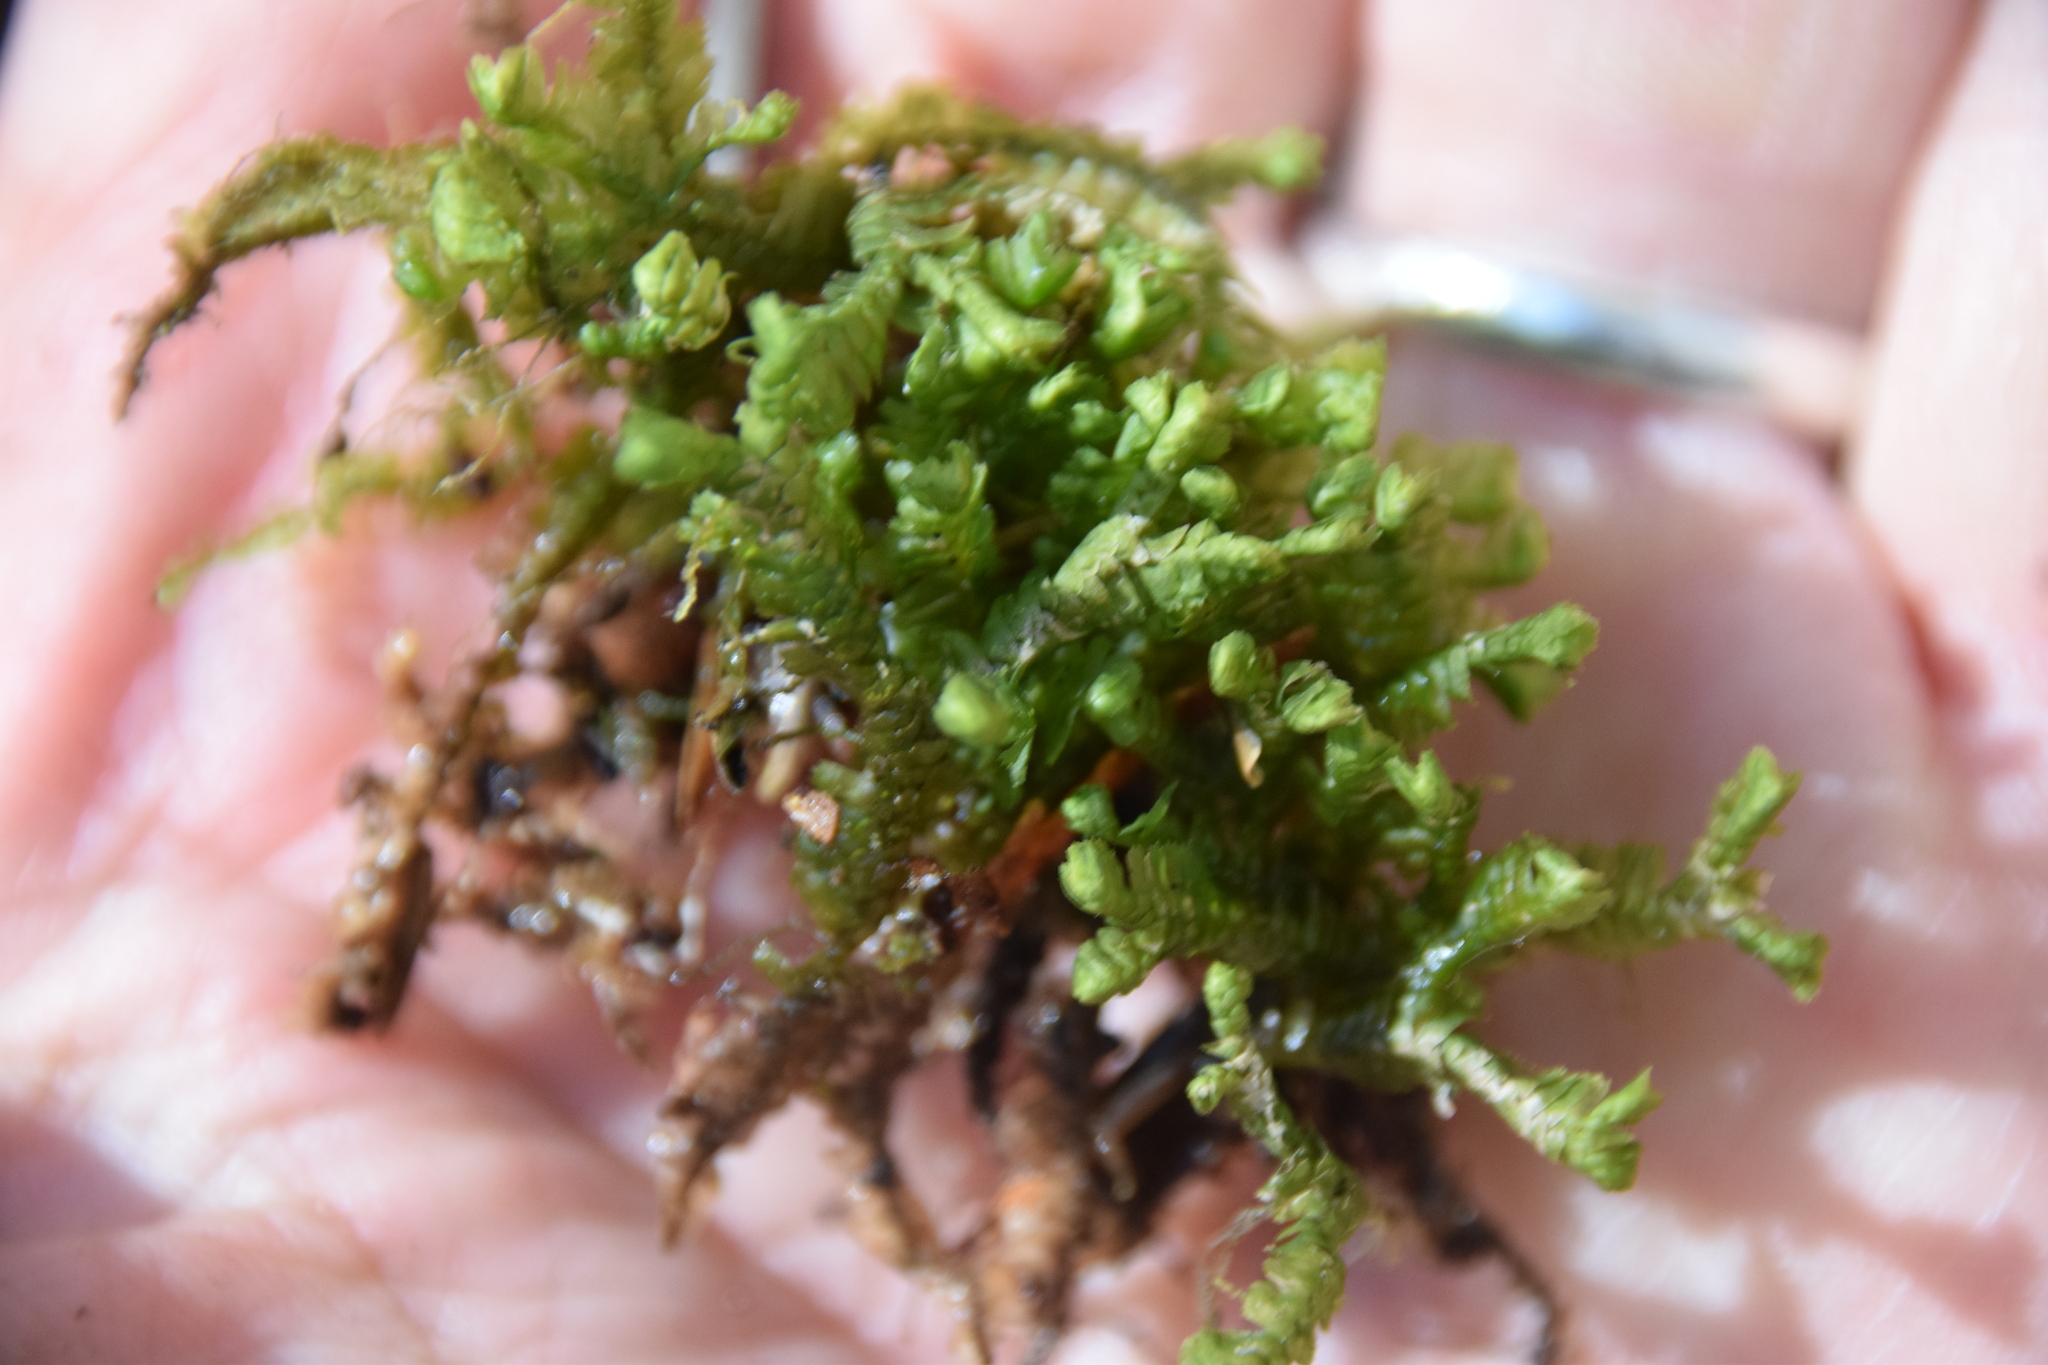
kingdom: Plantae
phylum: Marchantiophyta
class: Jungermanniopsida
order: Jungermanniales
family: Lepidoziaceae
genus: Bazzania
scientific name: Bazzania trilobata
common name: Three-lobed whipwort
